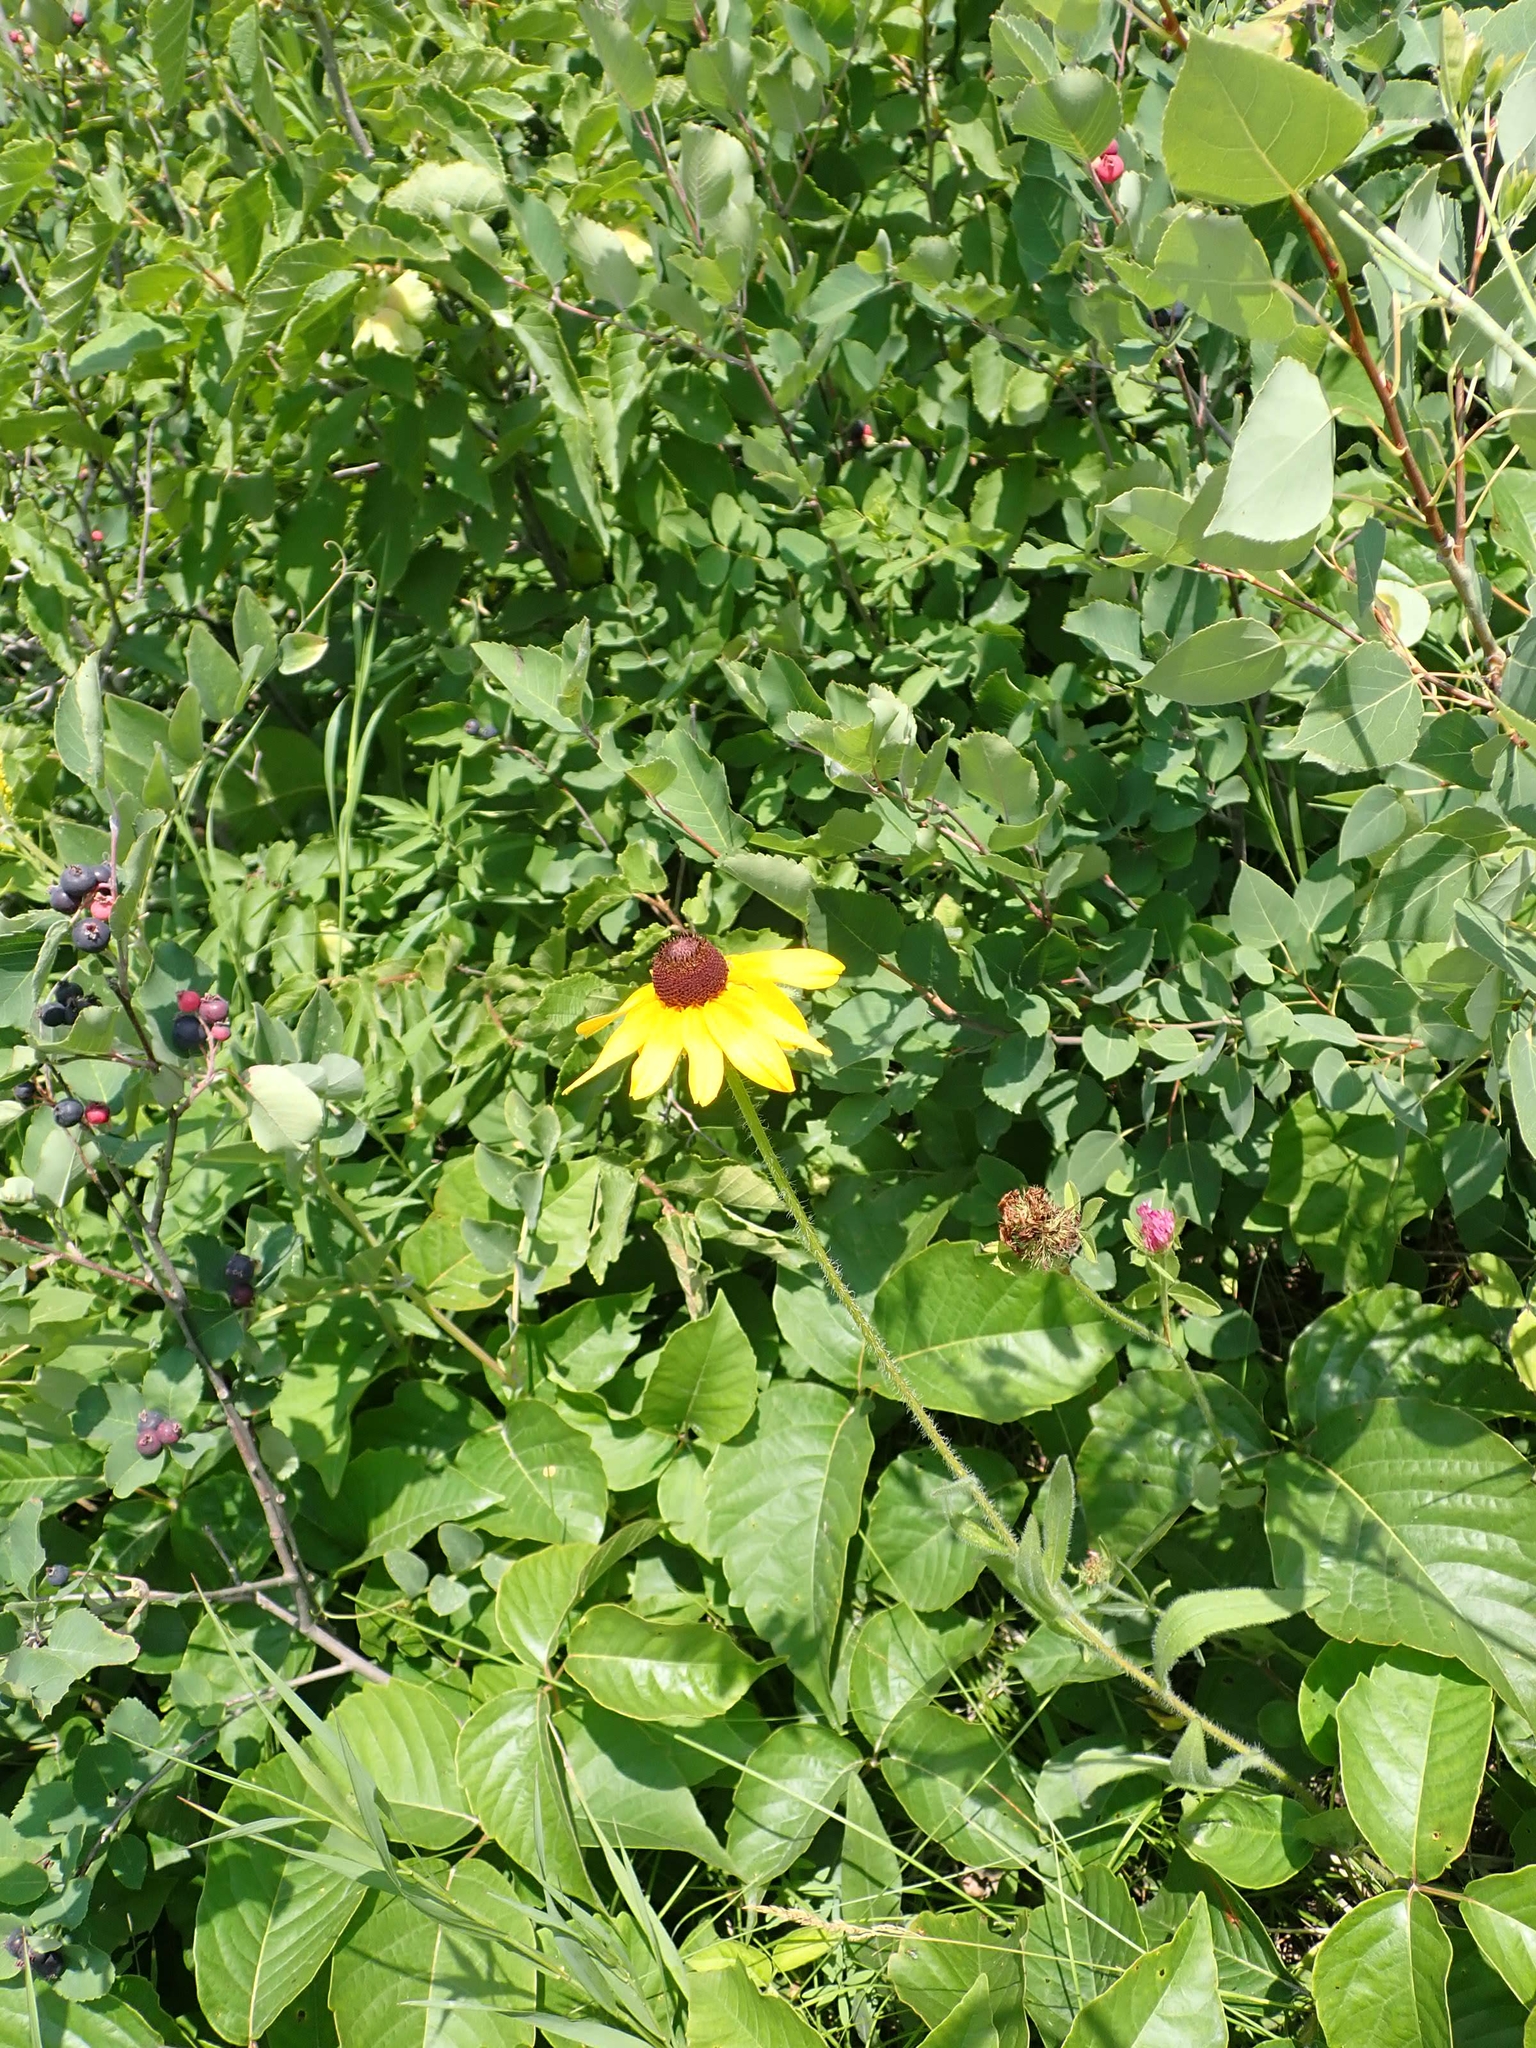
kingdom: Plantae
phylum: Tracheophyta
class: Magnoliopsida
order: Asterales
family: Asteraceae
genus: Rudbeckia
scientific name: Rudbeckia hirta
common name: Black-eyed-susan
